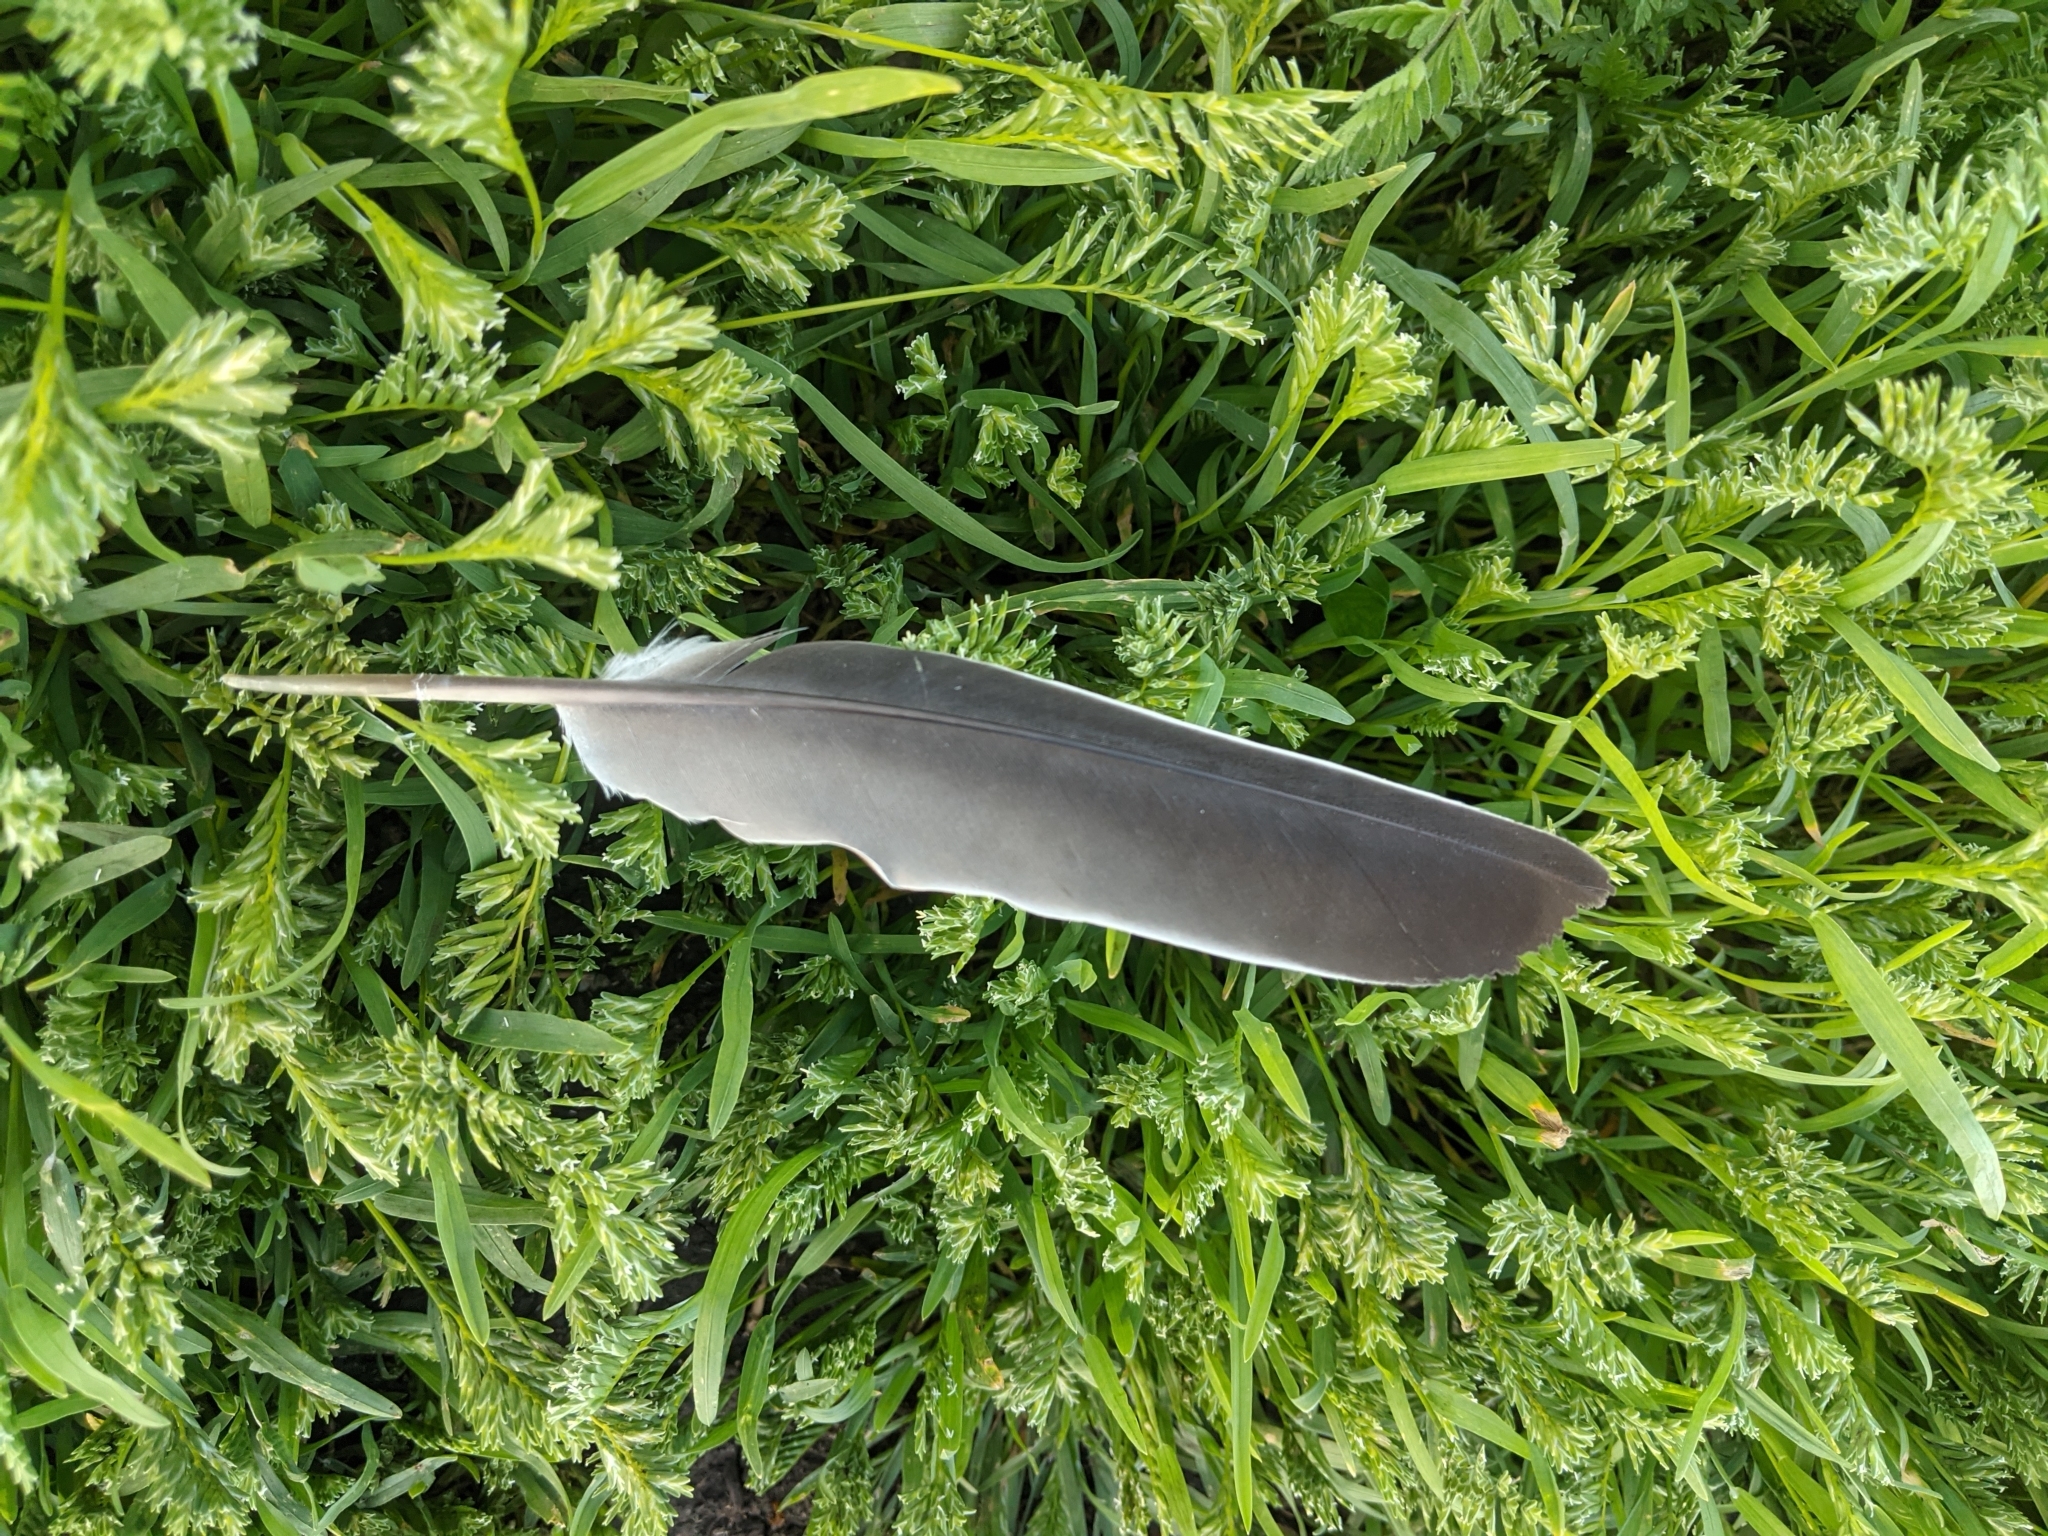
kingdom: Animalia
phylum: Chordata
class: Aves
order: Columbiformes
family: Columbidae
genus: Columba
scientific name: Columba palumbus
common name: Common wood pigeon
